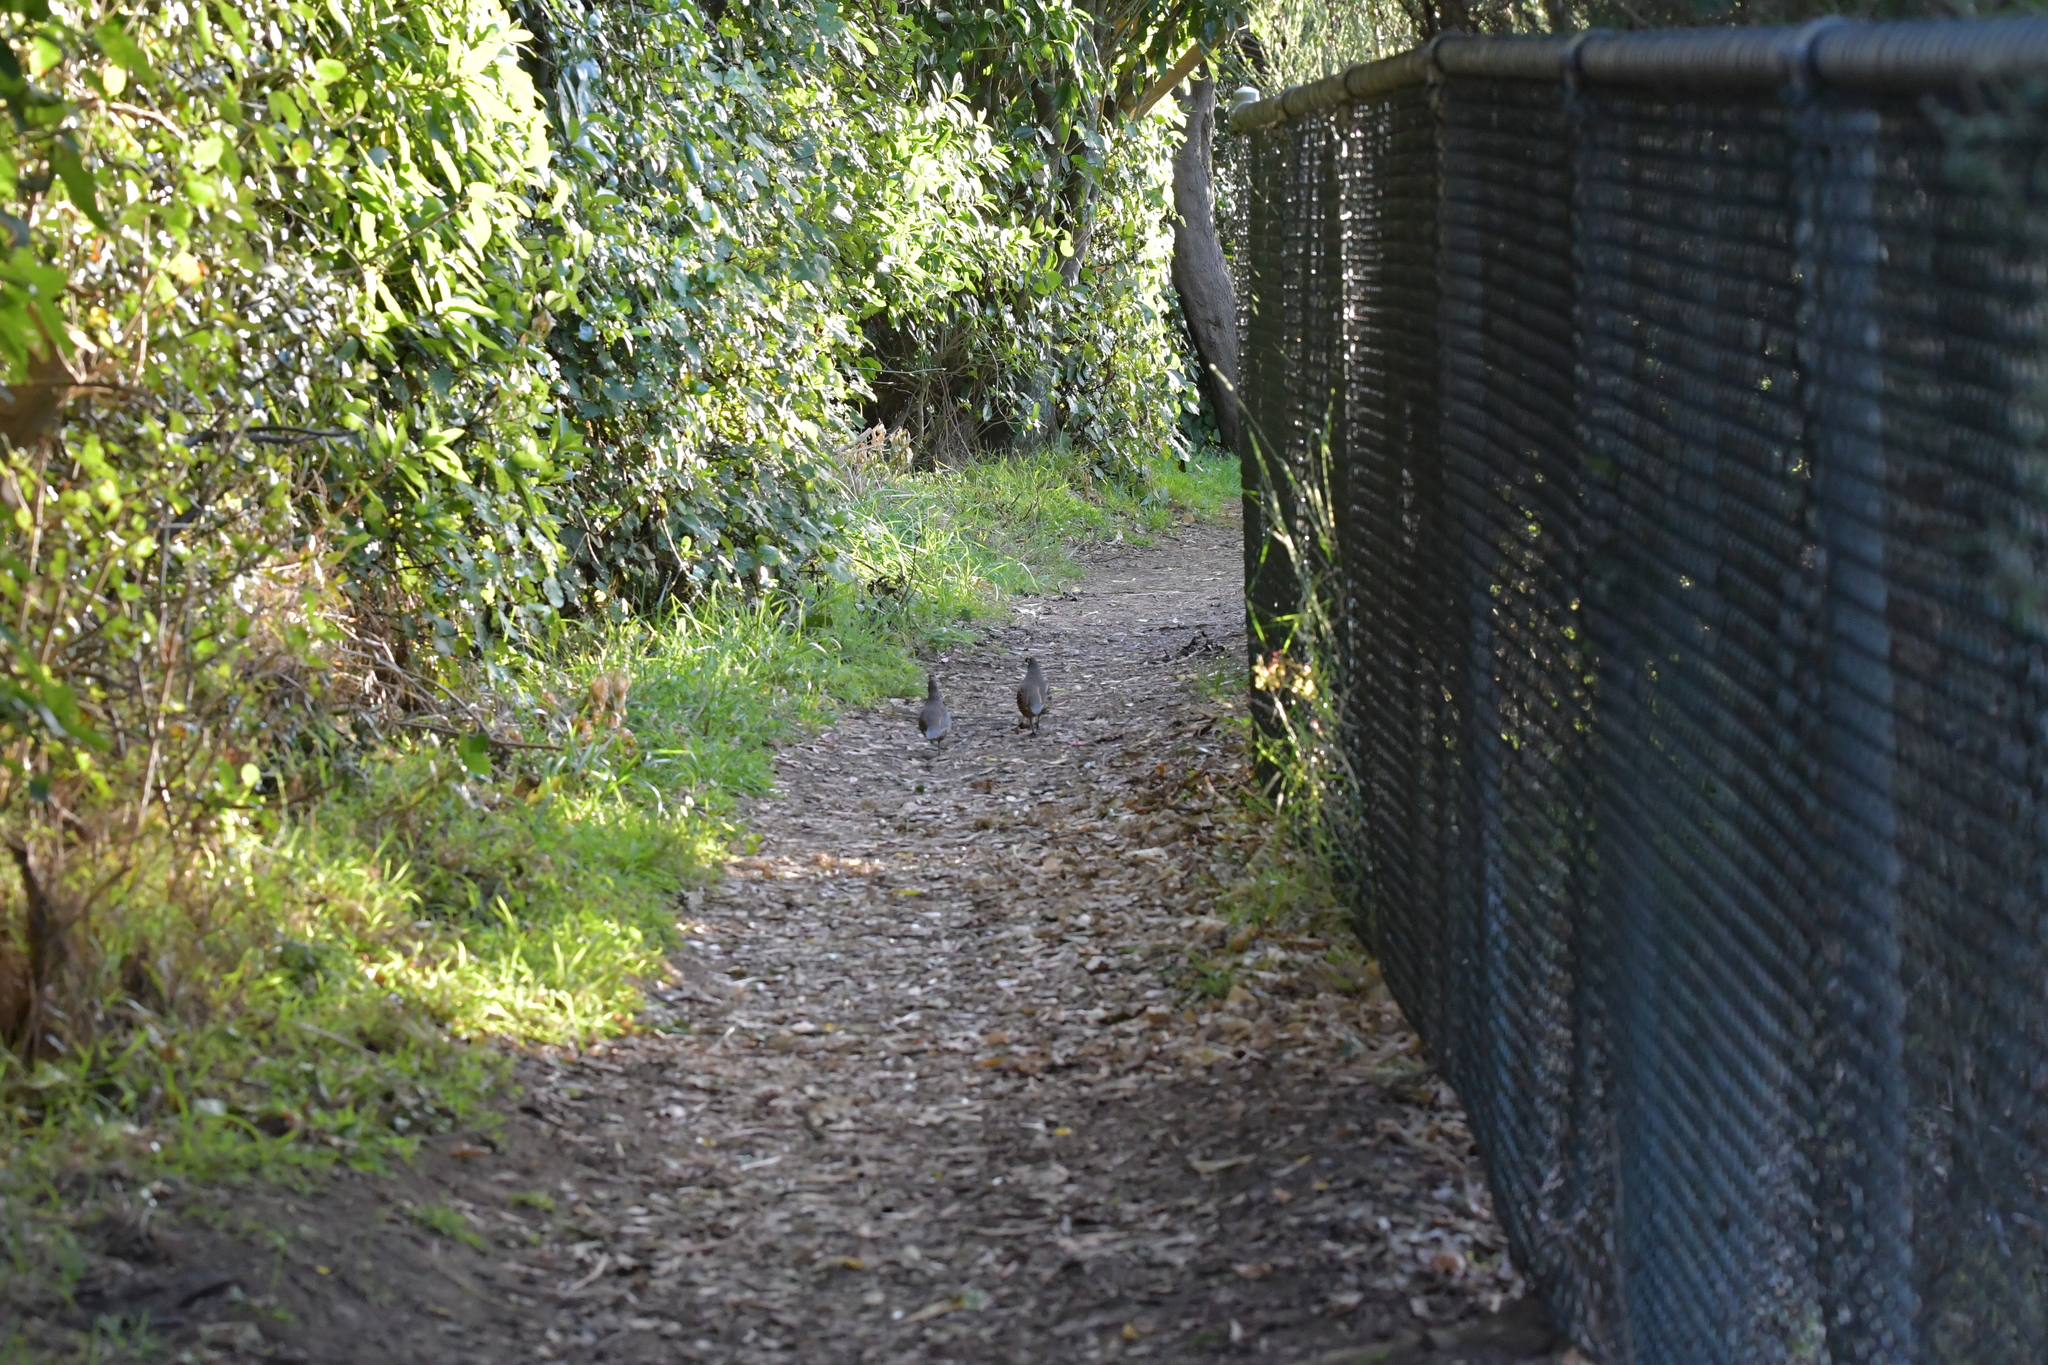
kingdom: Animalia
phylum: Chordata
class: Aves
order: Galliformes
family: Odontophoridae
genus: Callipepla
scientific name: Callipepla californica
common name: California quail
